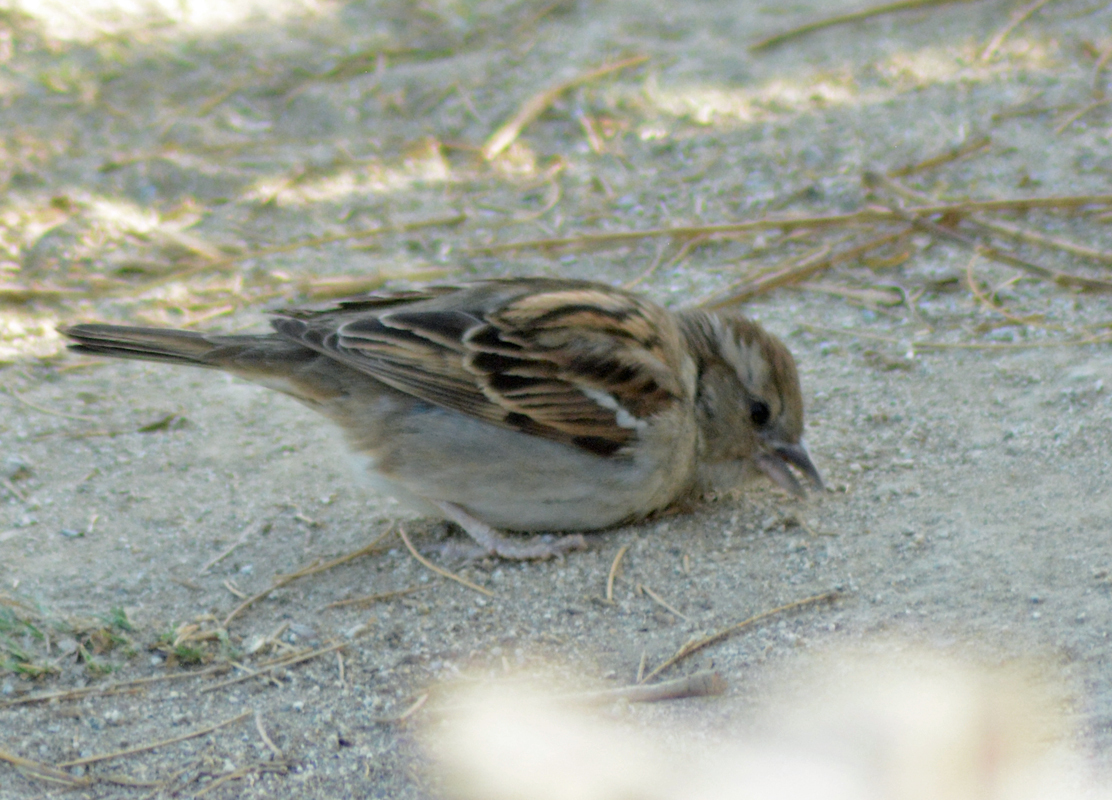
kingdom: Animalia
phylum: Chordata
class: Aves
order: Passeriformes
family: Passeridae
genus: Passer
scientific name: Passer domesticus
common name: House sparrow
